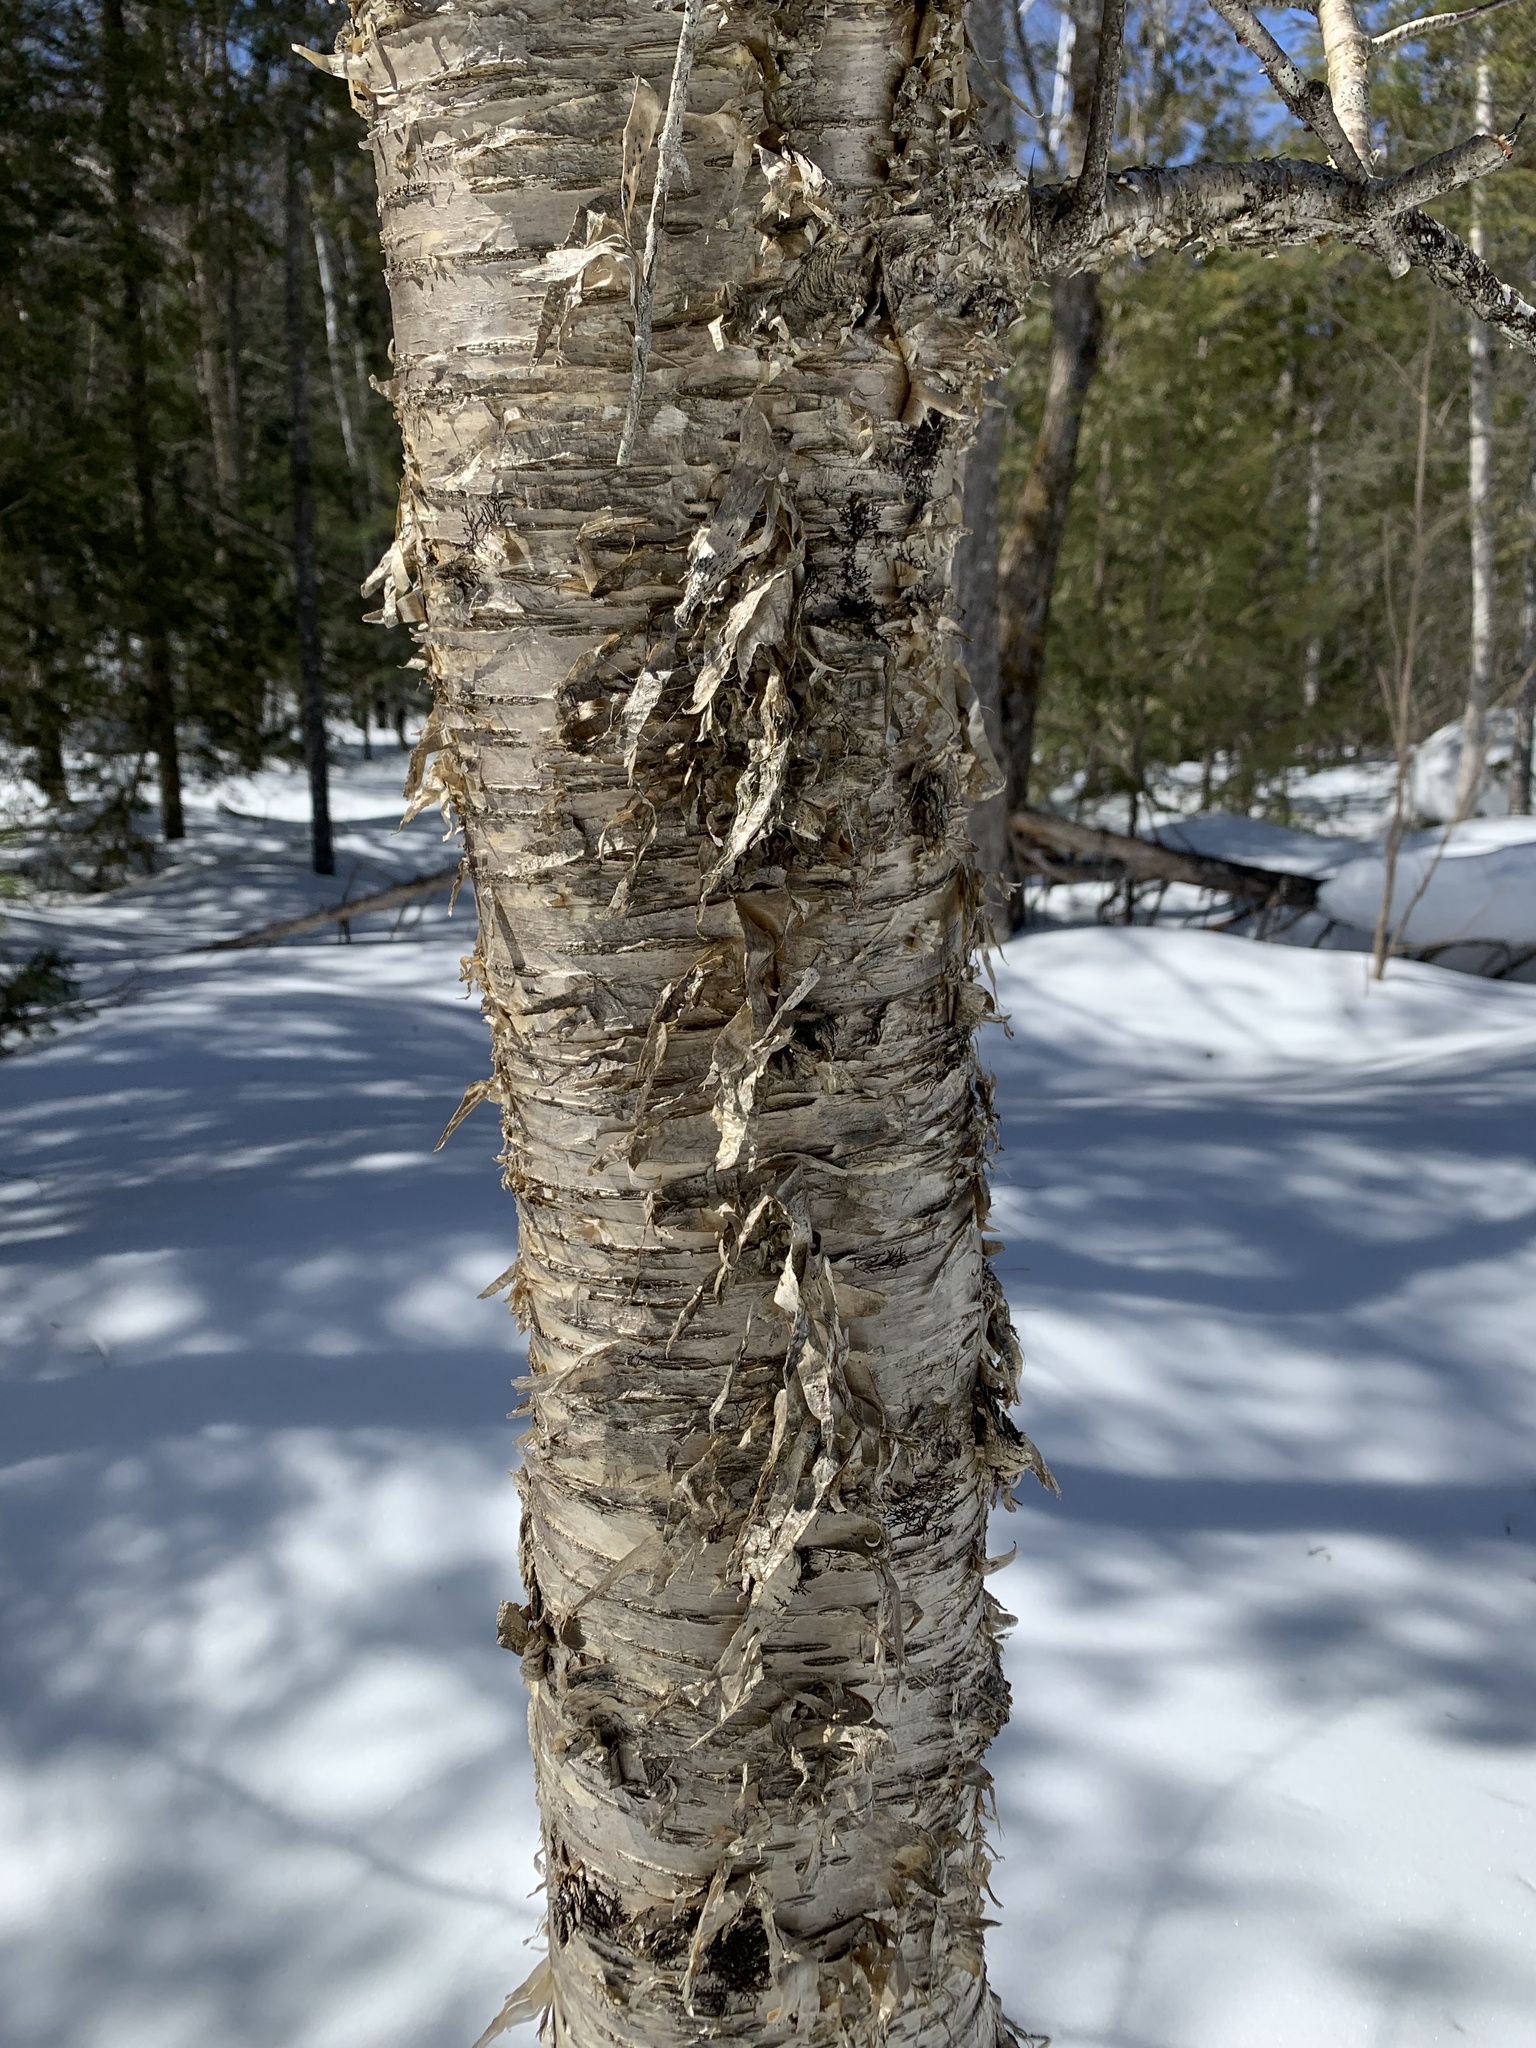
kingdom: Plantae
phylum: Tracheophyta
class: Magnoliopsida
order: Fagales
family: Betulaceae
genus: Betula
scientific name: Betula alleghaniensis
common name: Yellow birch
